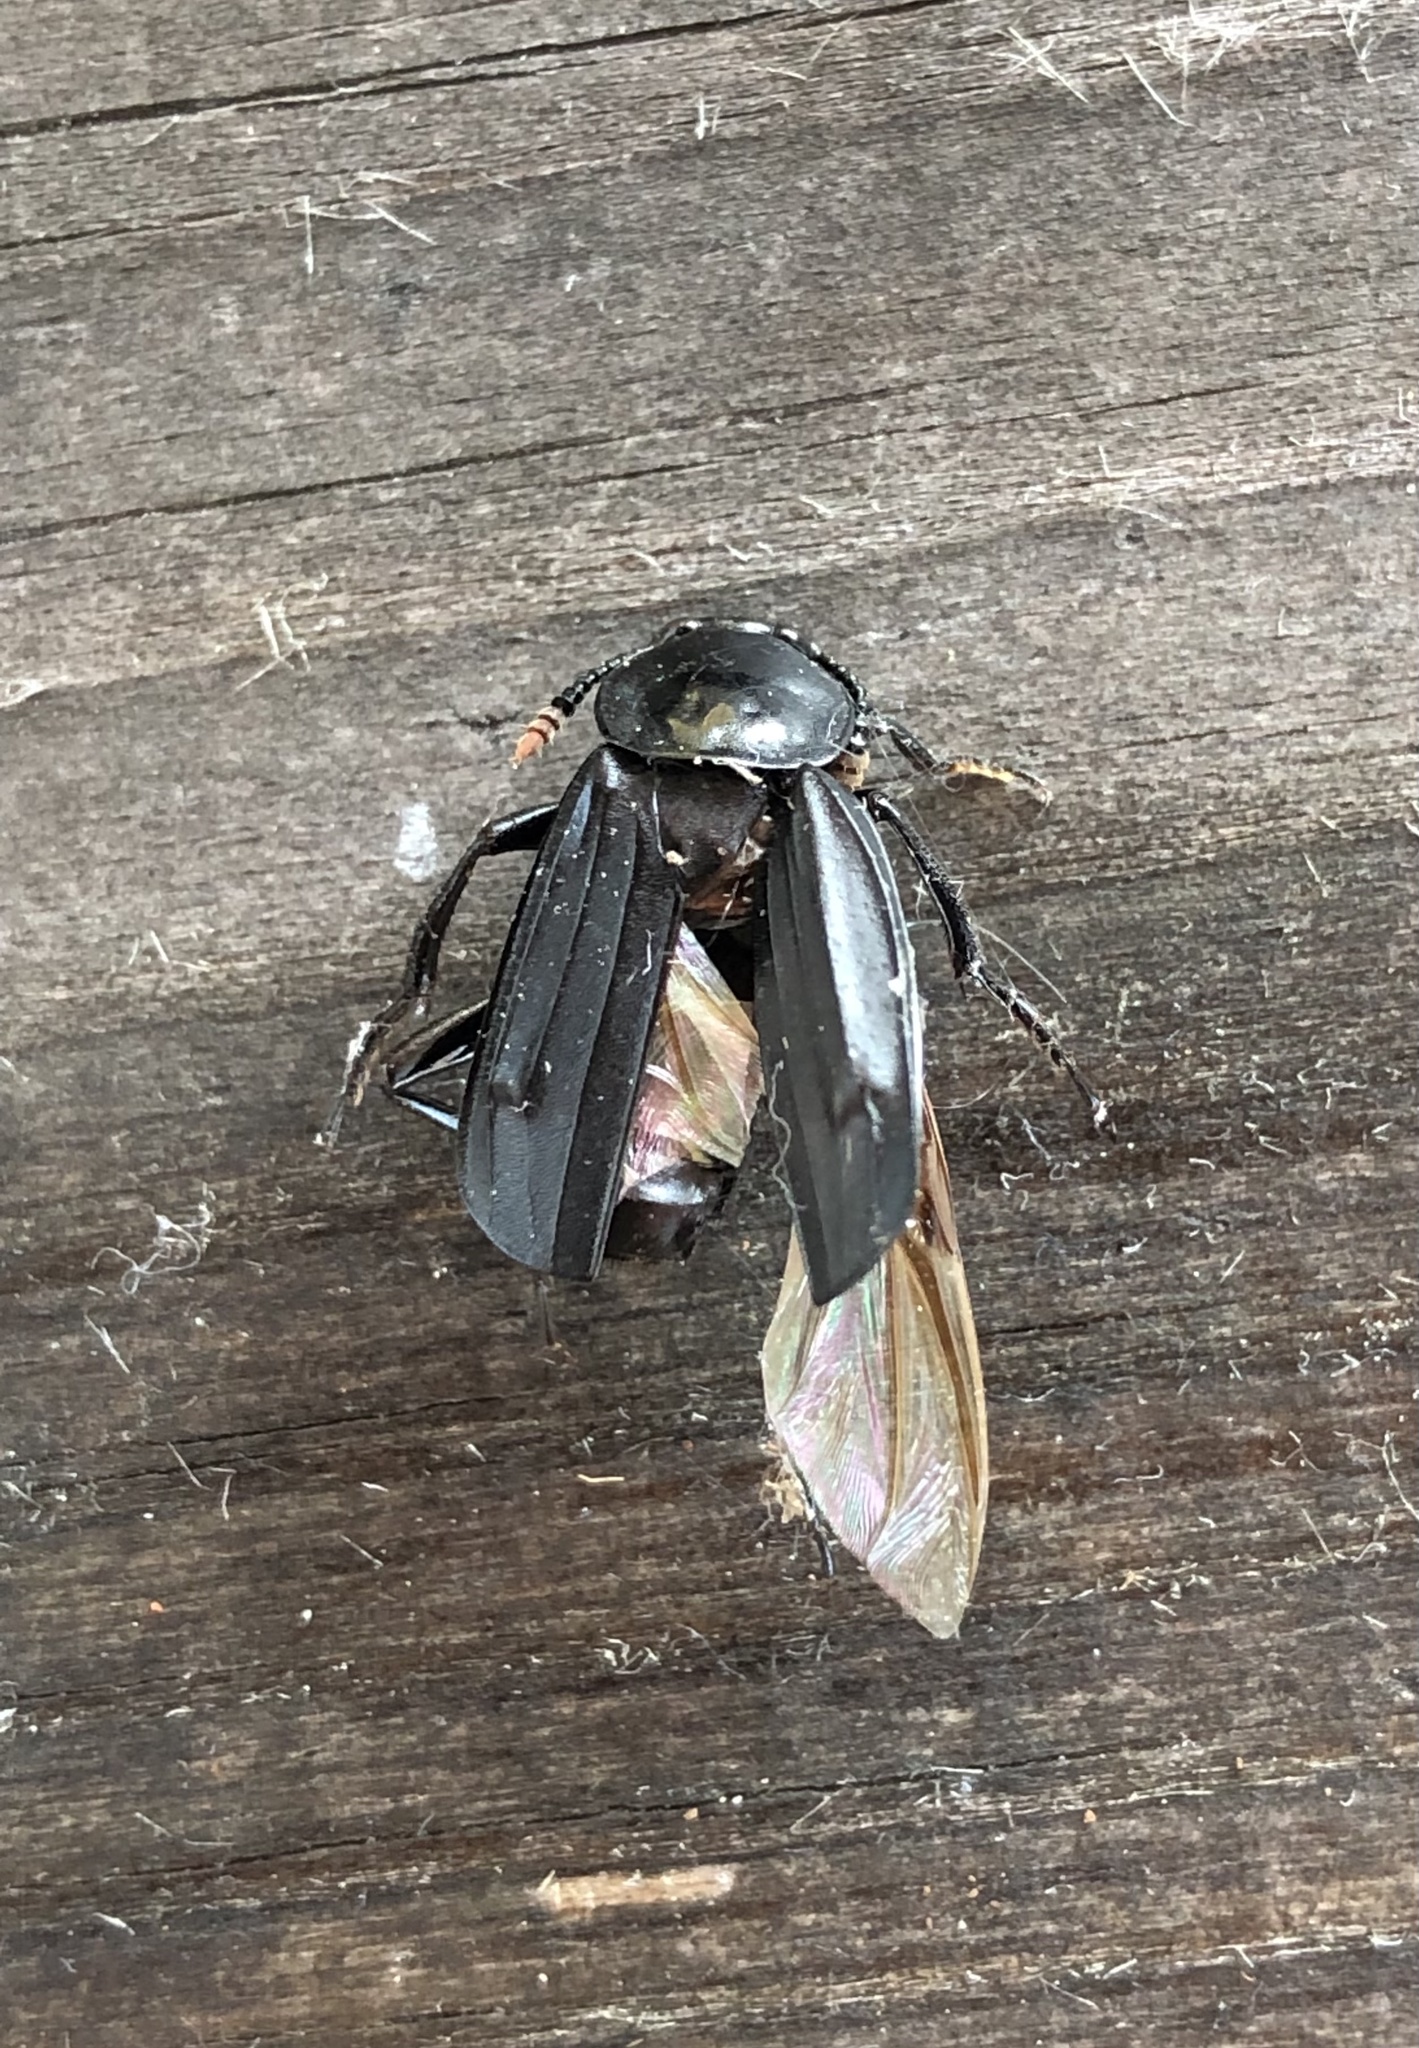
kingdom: Animalia
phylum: Arthropoda
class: Insecta
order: Coleoptera
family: Staphylinidae
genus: Necrodes
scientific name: Necrodes littoralis
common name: Shore sexton beetle
